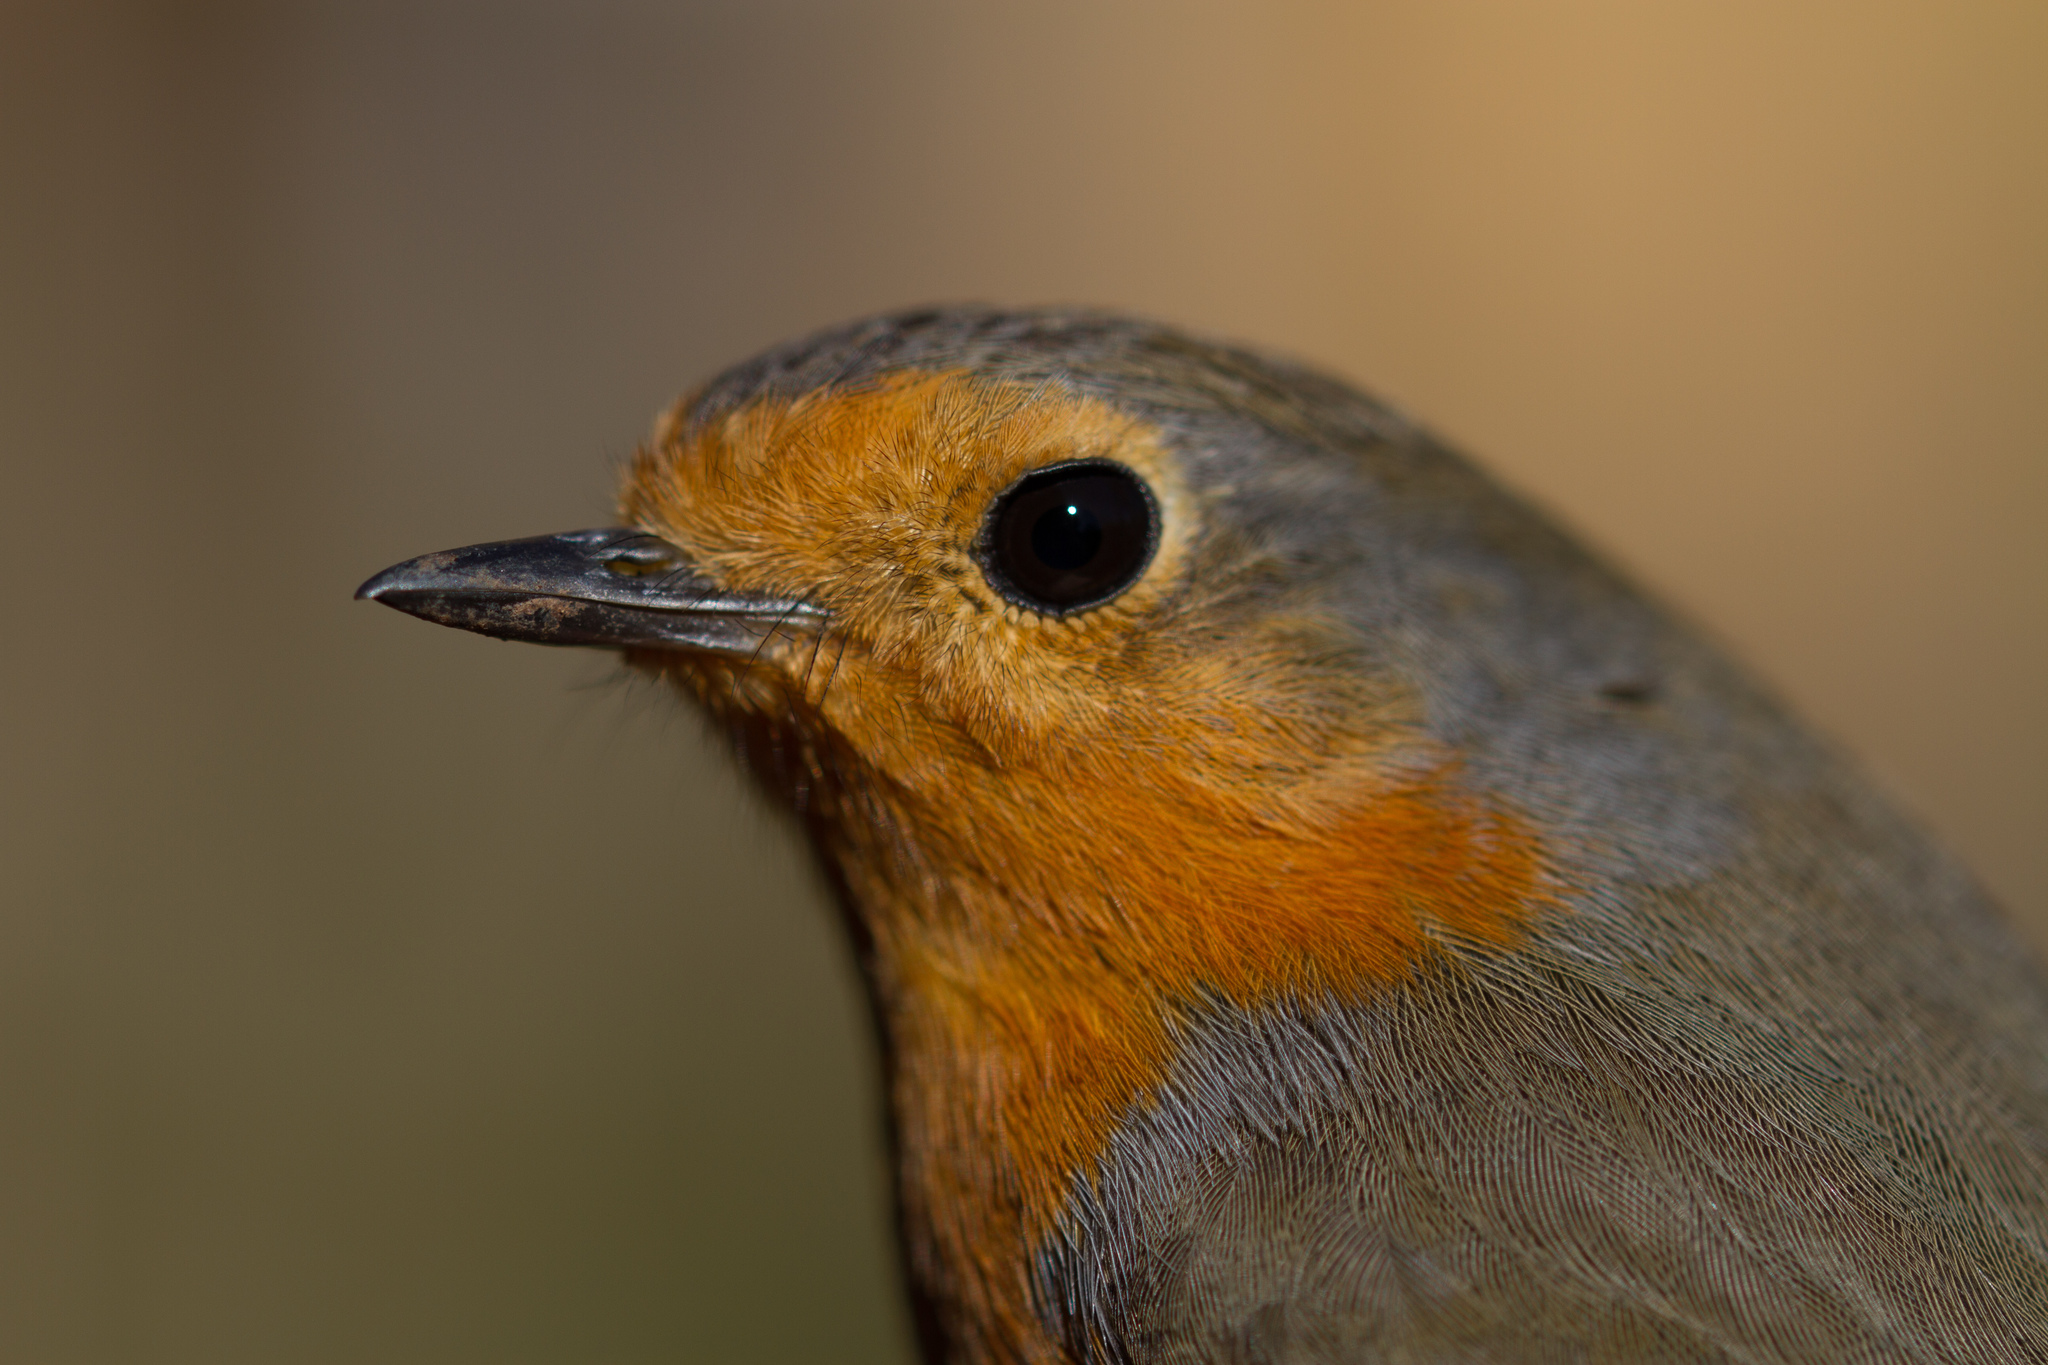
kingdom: Animalia
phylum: Chordata
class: Aves
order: Passeriformes
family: Muscicapidae
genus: Erithacus
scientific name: Erithacus rubecula
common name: European robin
